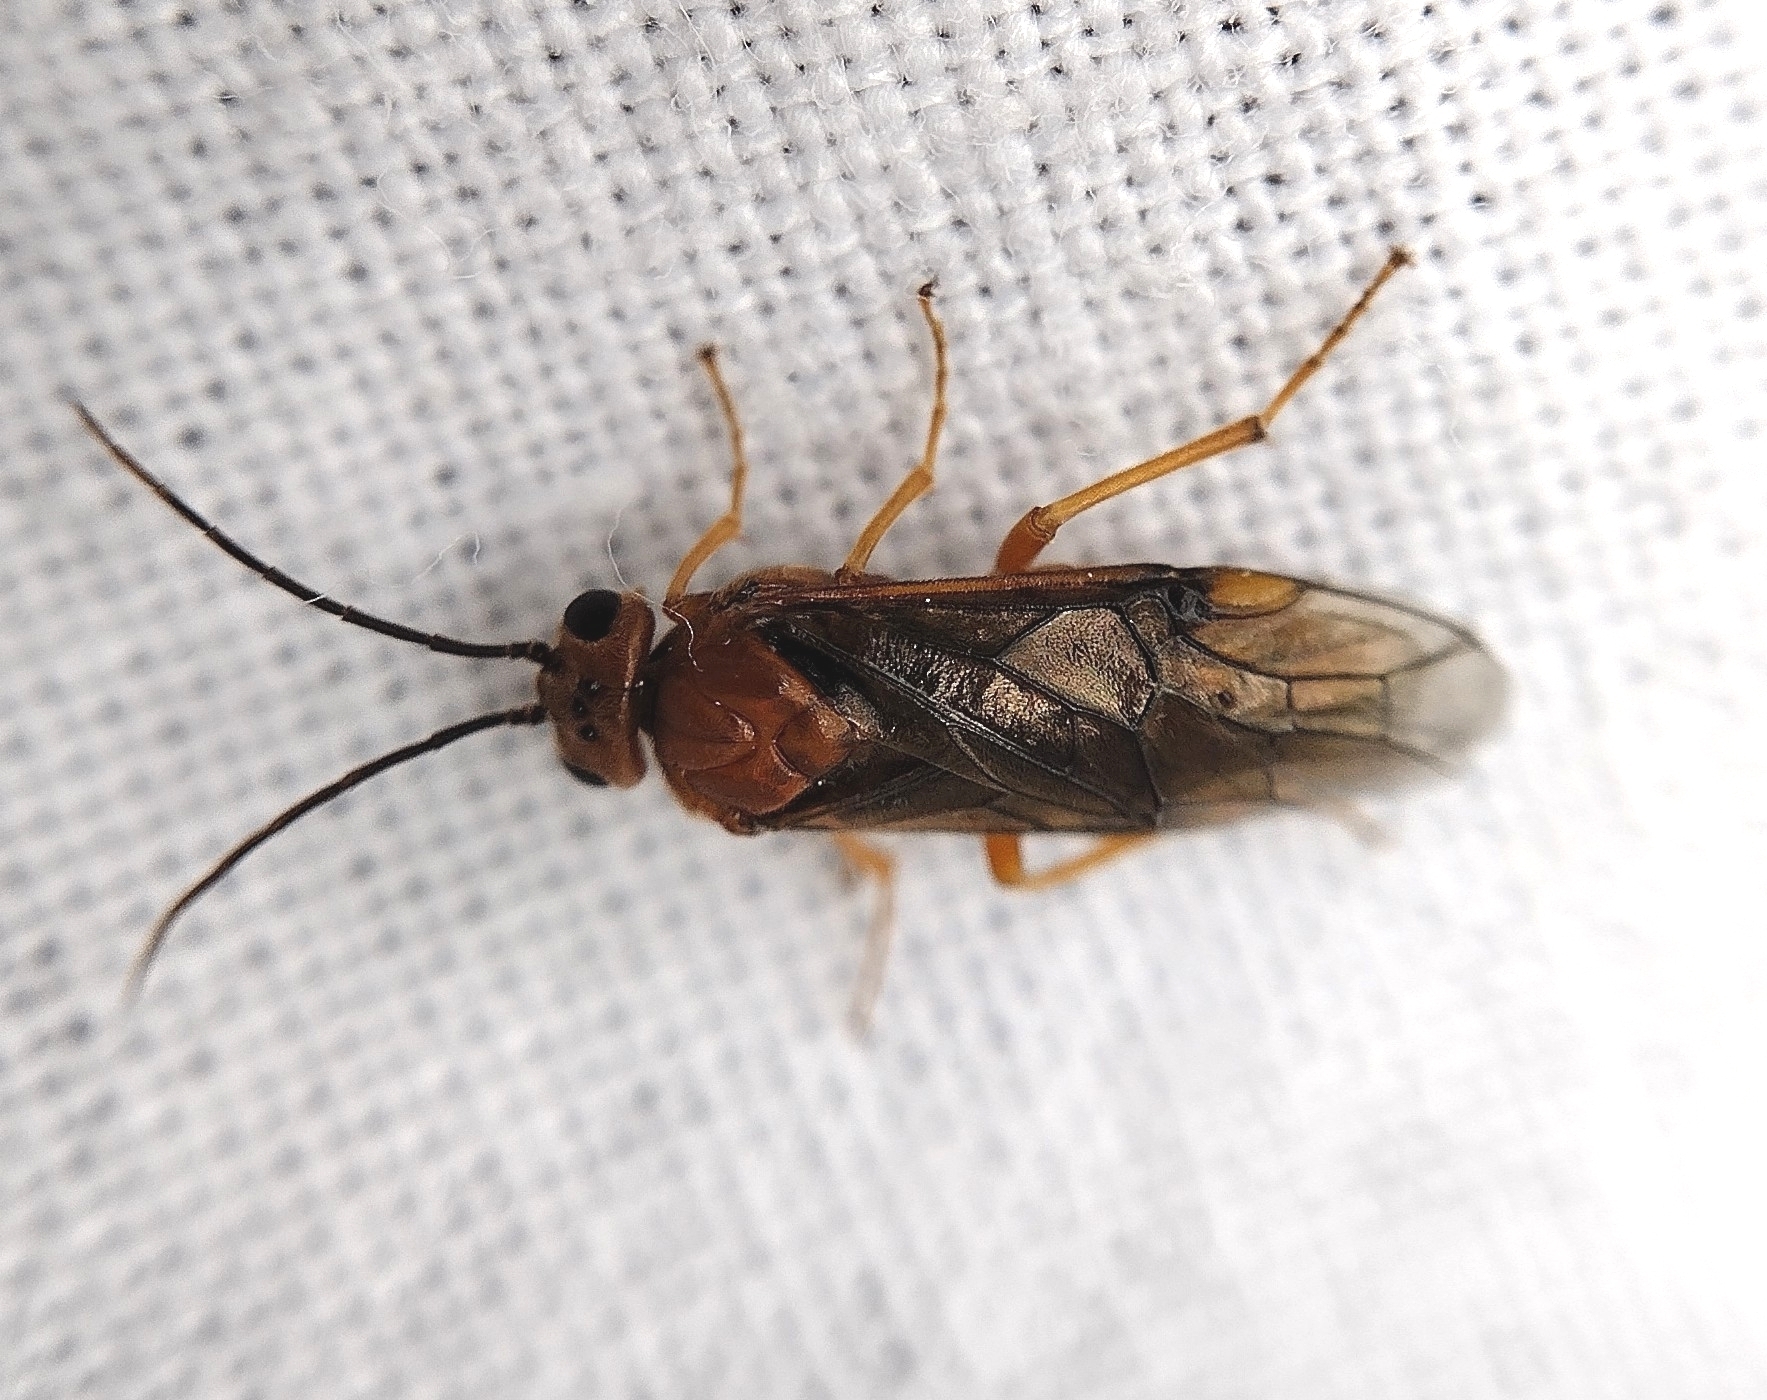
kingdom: Animalia
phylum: Arthropoda
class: Insecta
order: Hymenoptera
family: Tenthredinidae
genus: Nematinus
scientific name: Nematinus steini
